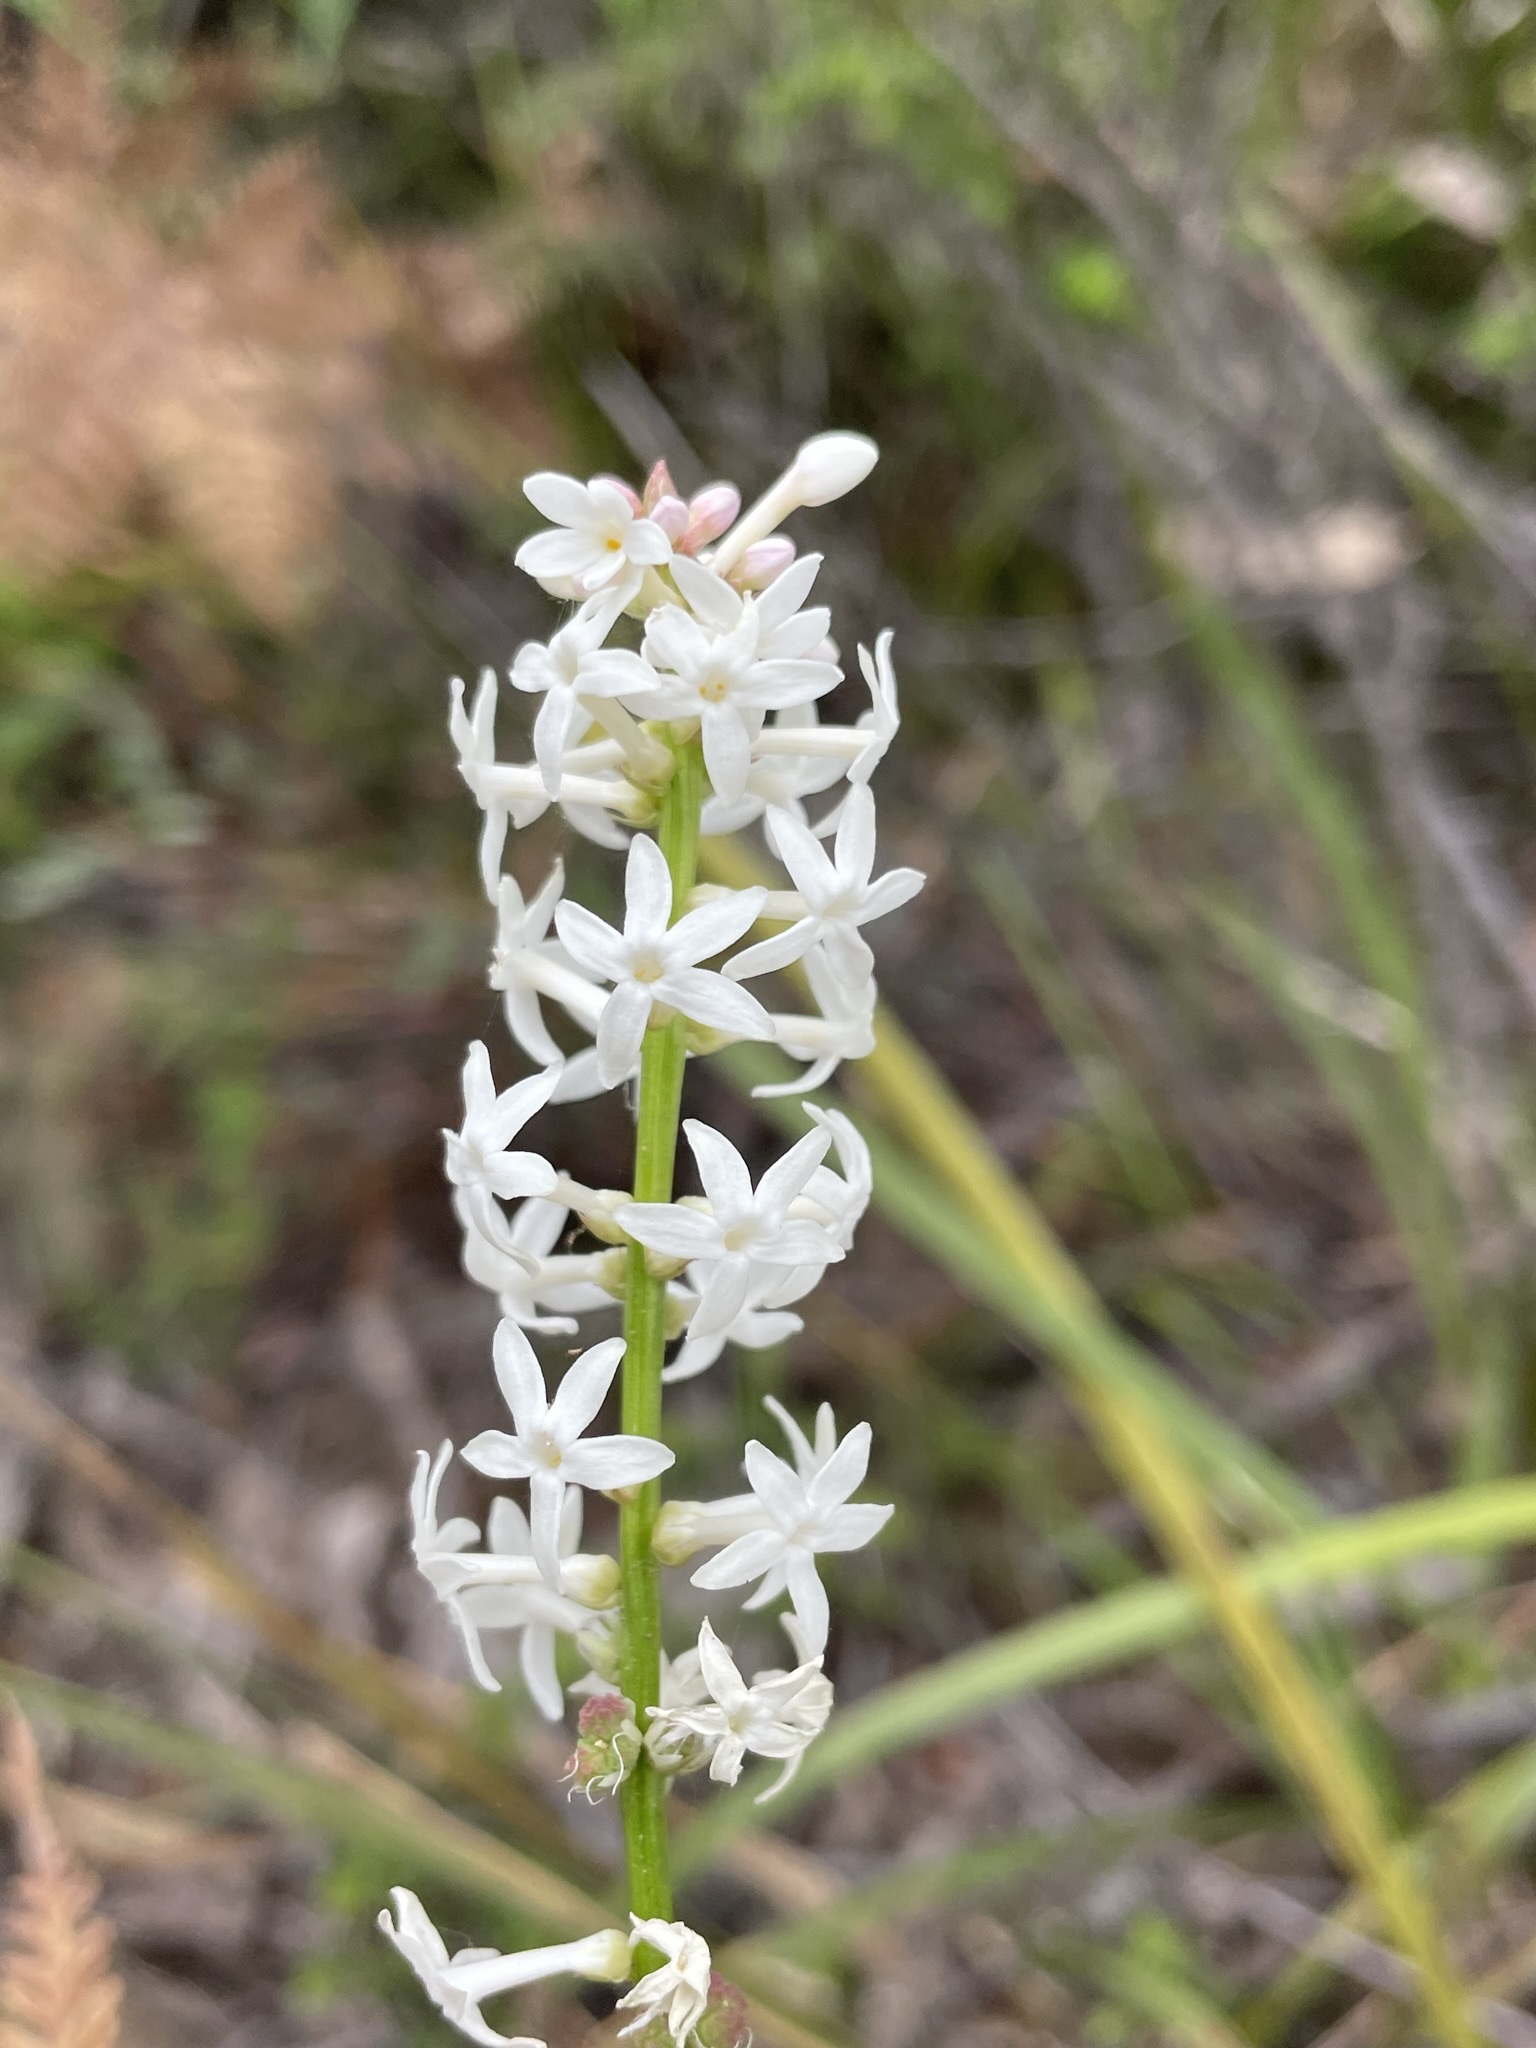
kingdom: Plantae
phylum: Tracheophyta
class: Magnoliopsida
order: Celastrales
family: Celastraceae
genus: Stackhousia
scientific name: Stackhousia monogyna
